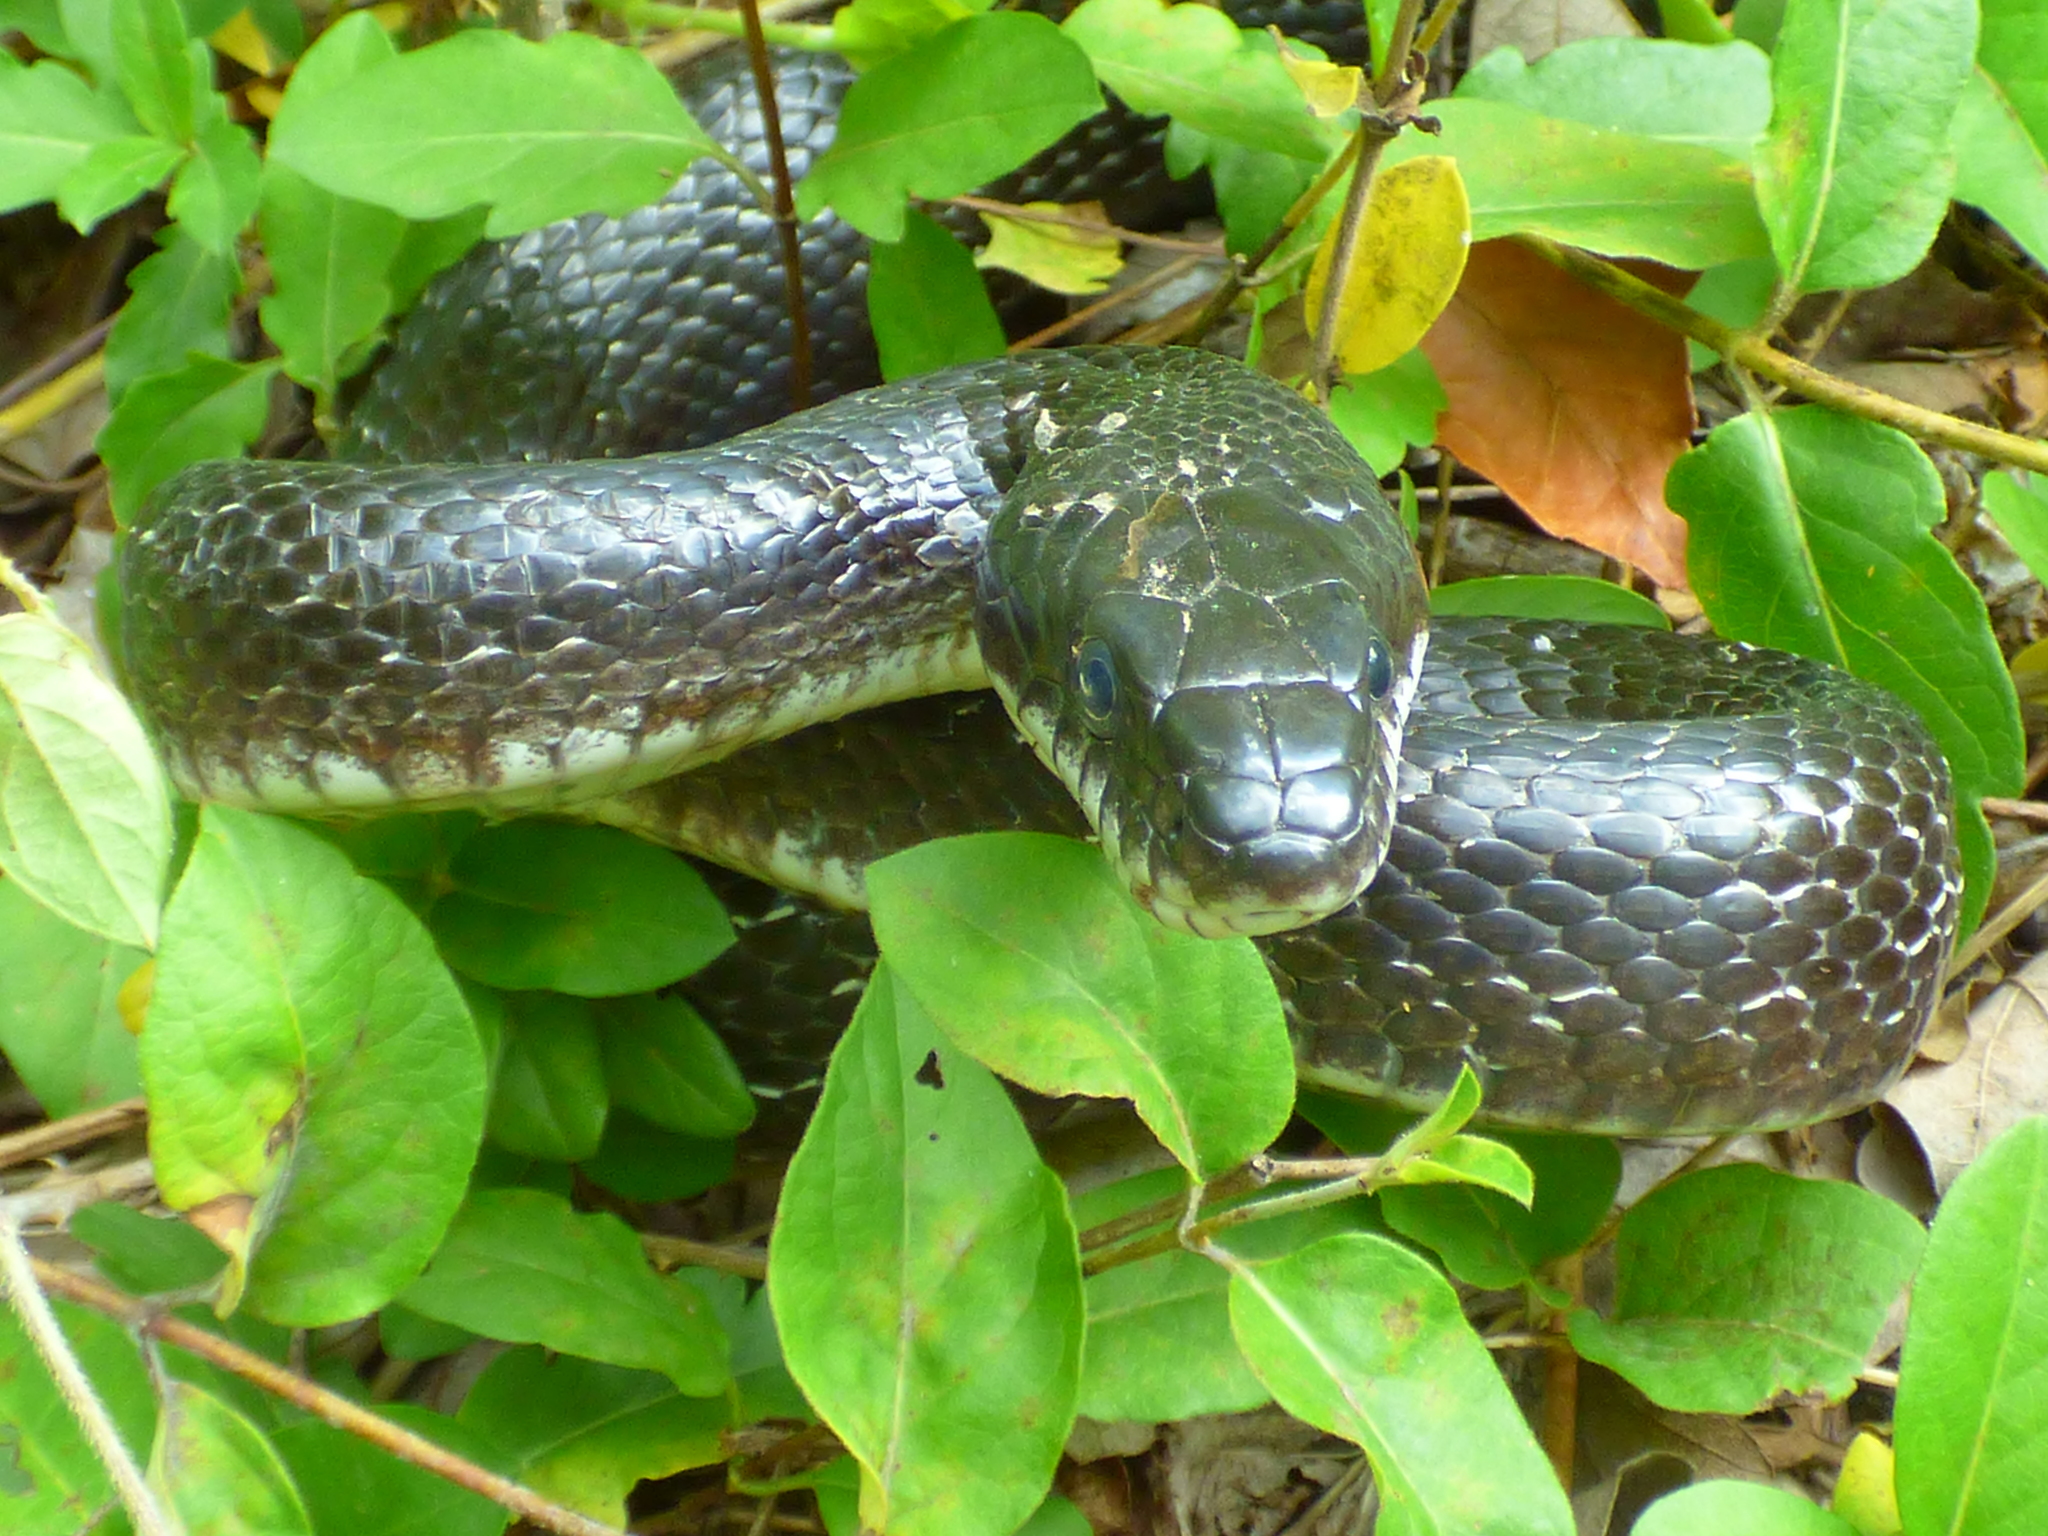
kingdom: Animalia
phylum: Chordata
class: Squamata
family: Colubridae
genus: Pantherophis
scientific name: Pantherophis alleghaniensis
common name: Eastern rat snake
